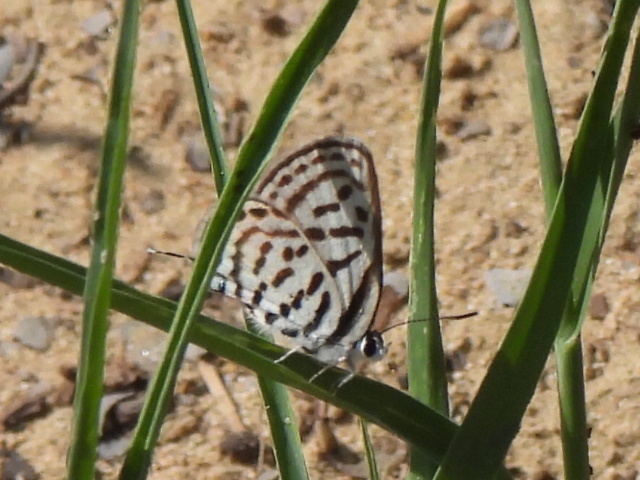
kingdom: Animalia
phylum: Arthropoda
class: Insecta
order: Lepidoptera
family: Lycaenidae
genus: Tarucus
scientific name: Tarucus rosacea
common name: Mediterranean pierrot
